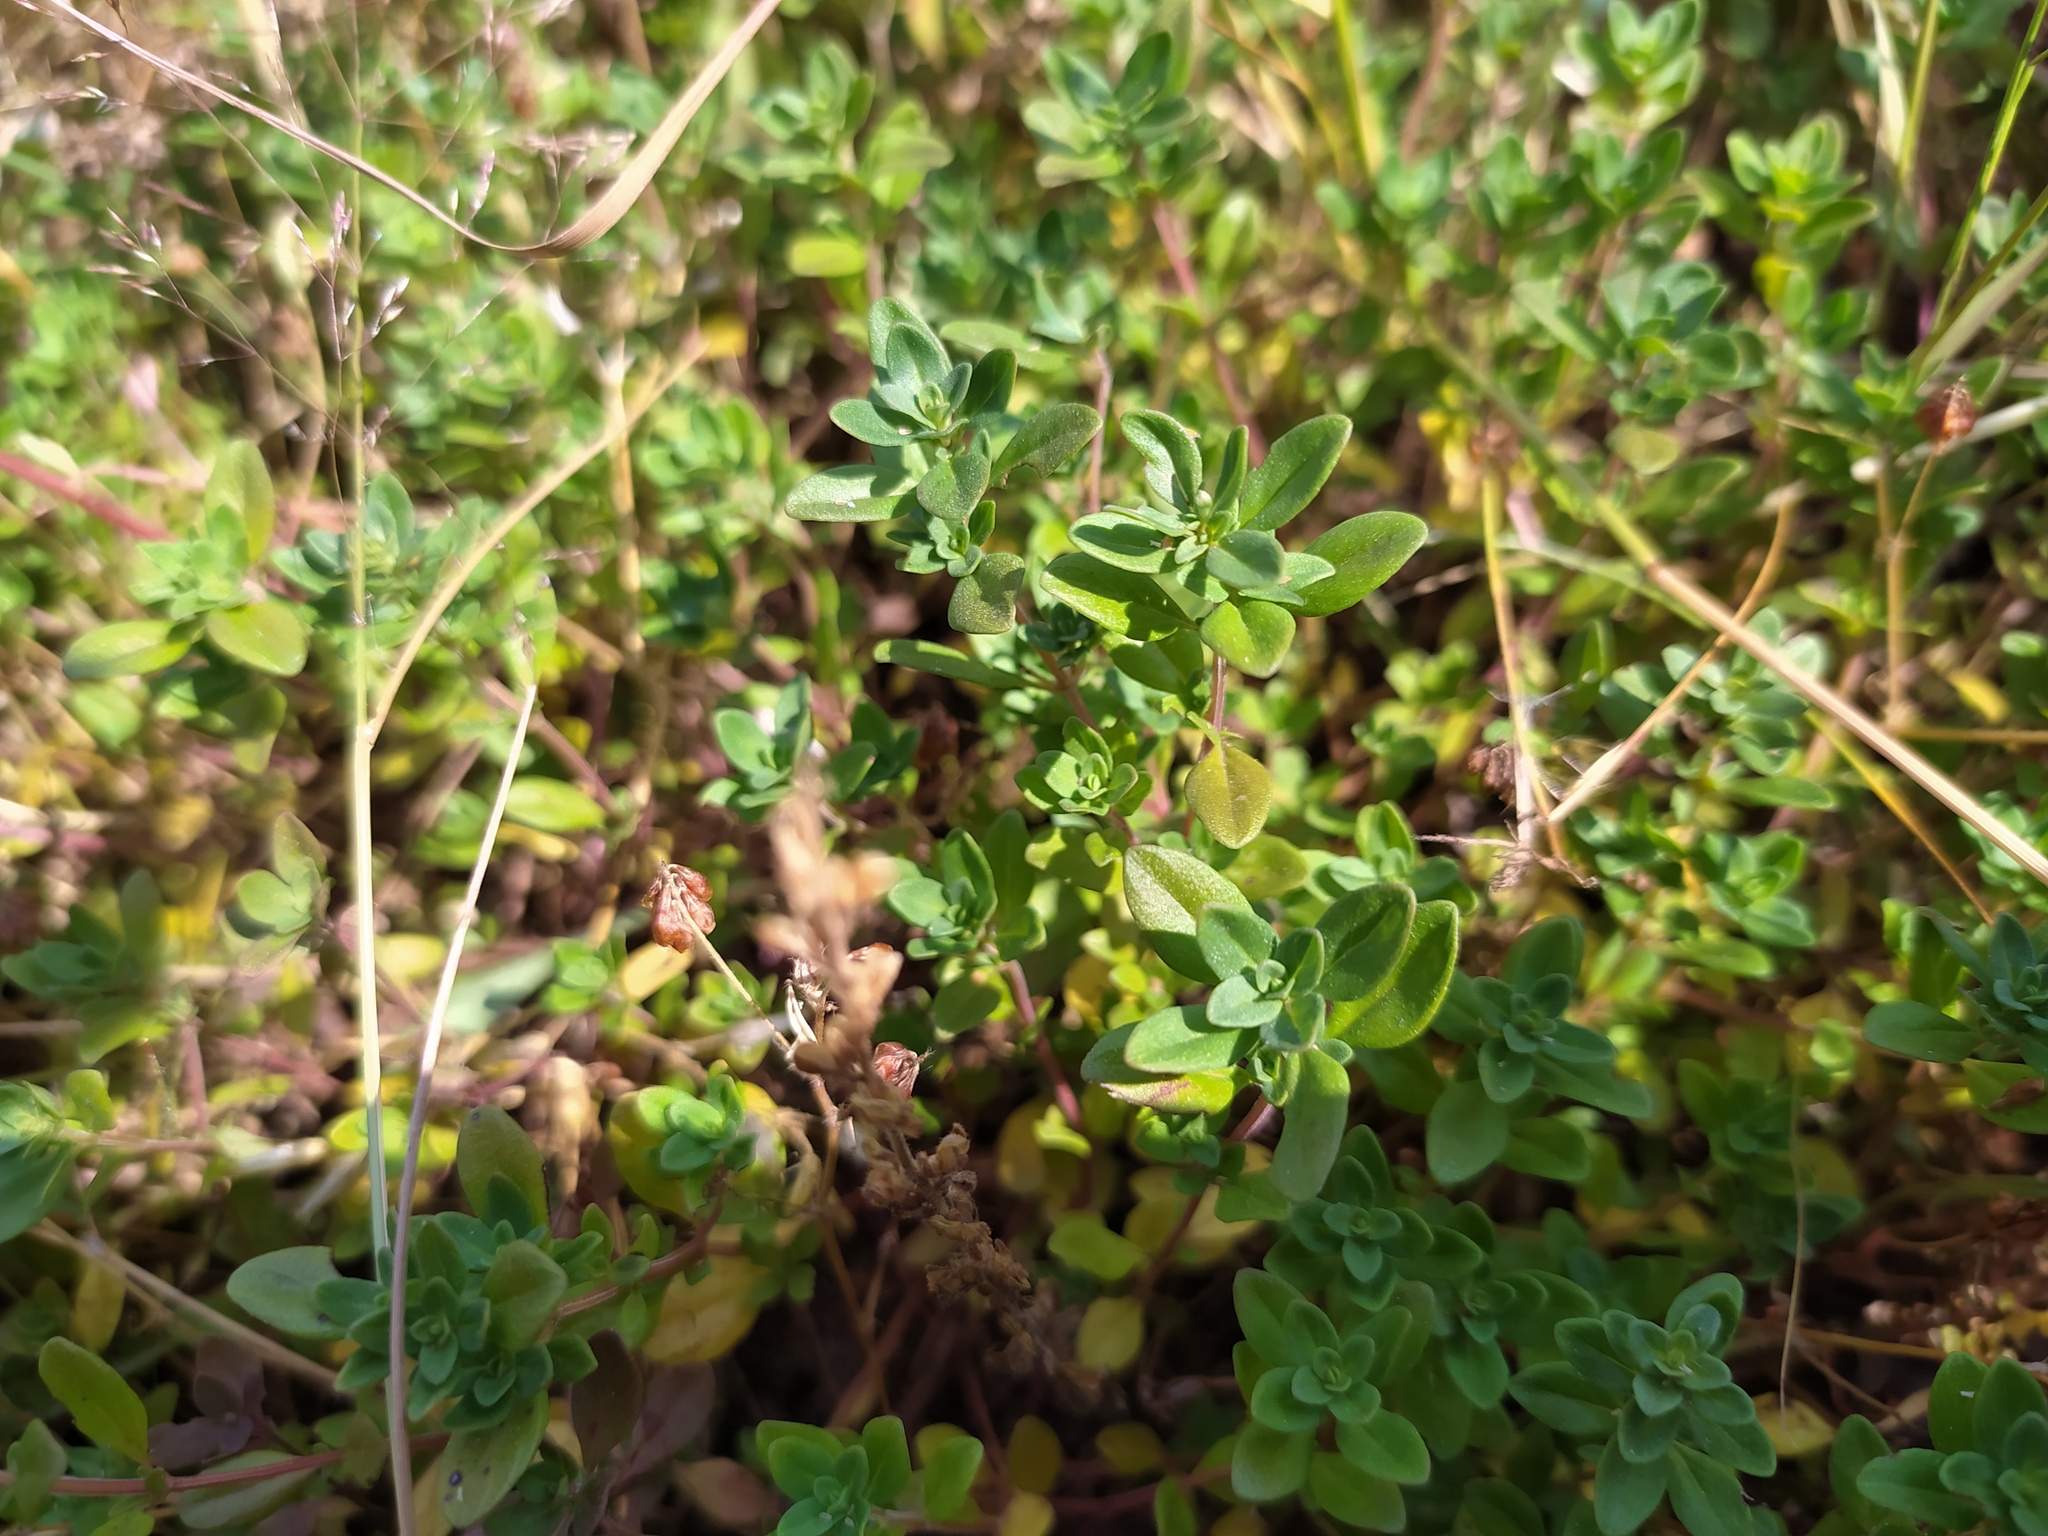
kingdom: Plantae
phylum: Tracheophyta
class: Magnoliopsida
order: Lamiales
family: Lamiaceae
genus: Thymus
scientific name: Thymus serpyllum
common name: Breckland thyme
